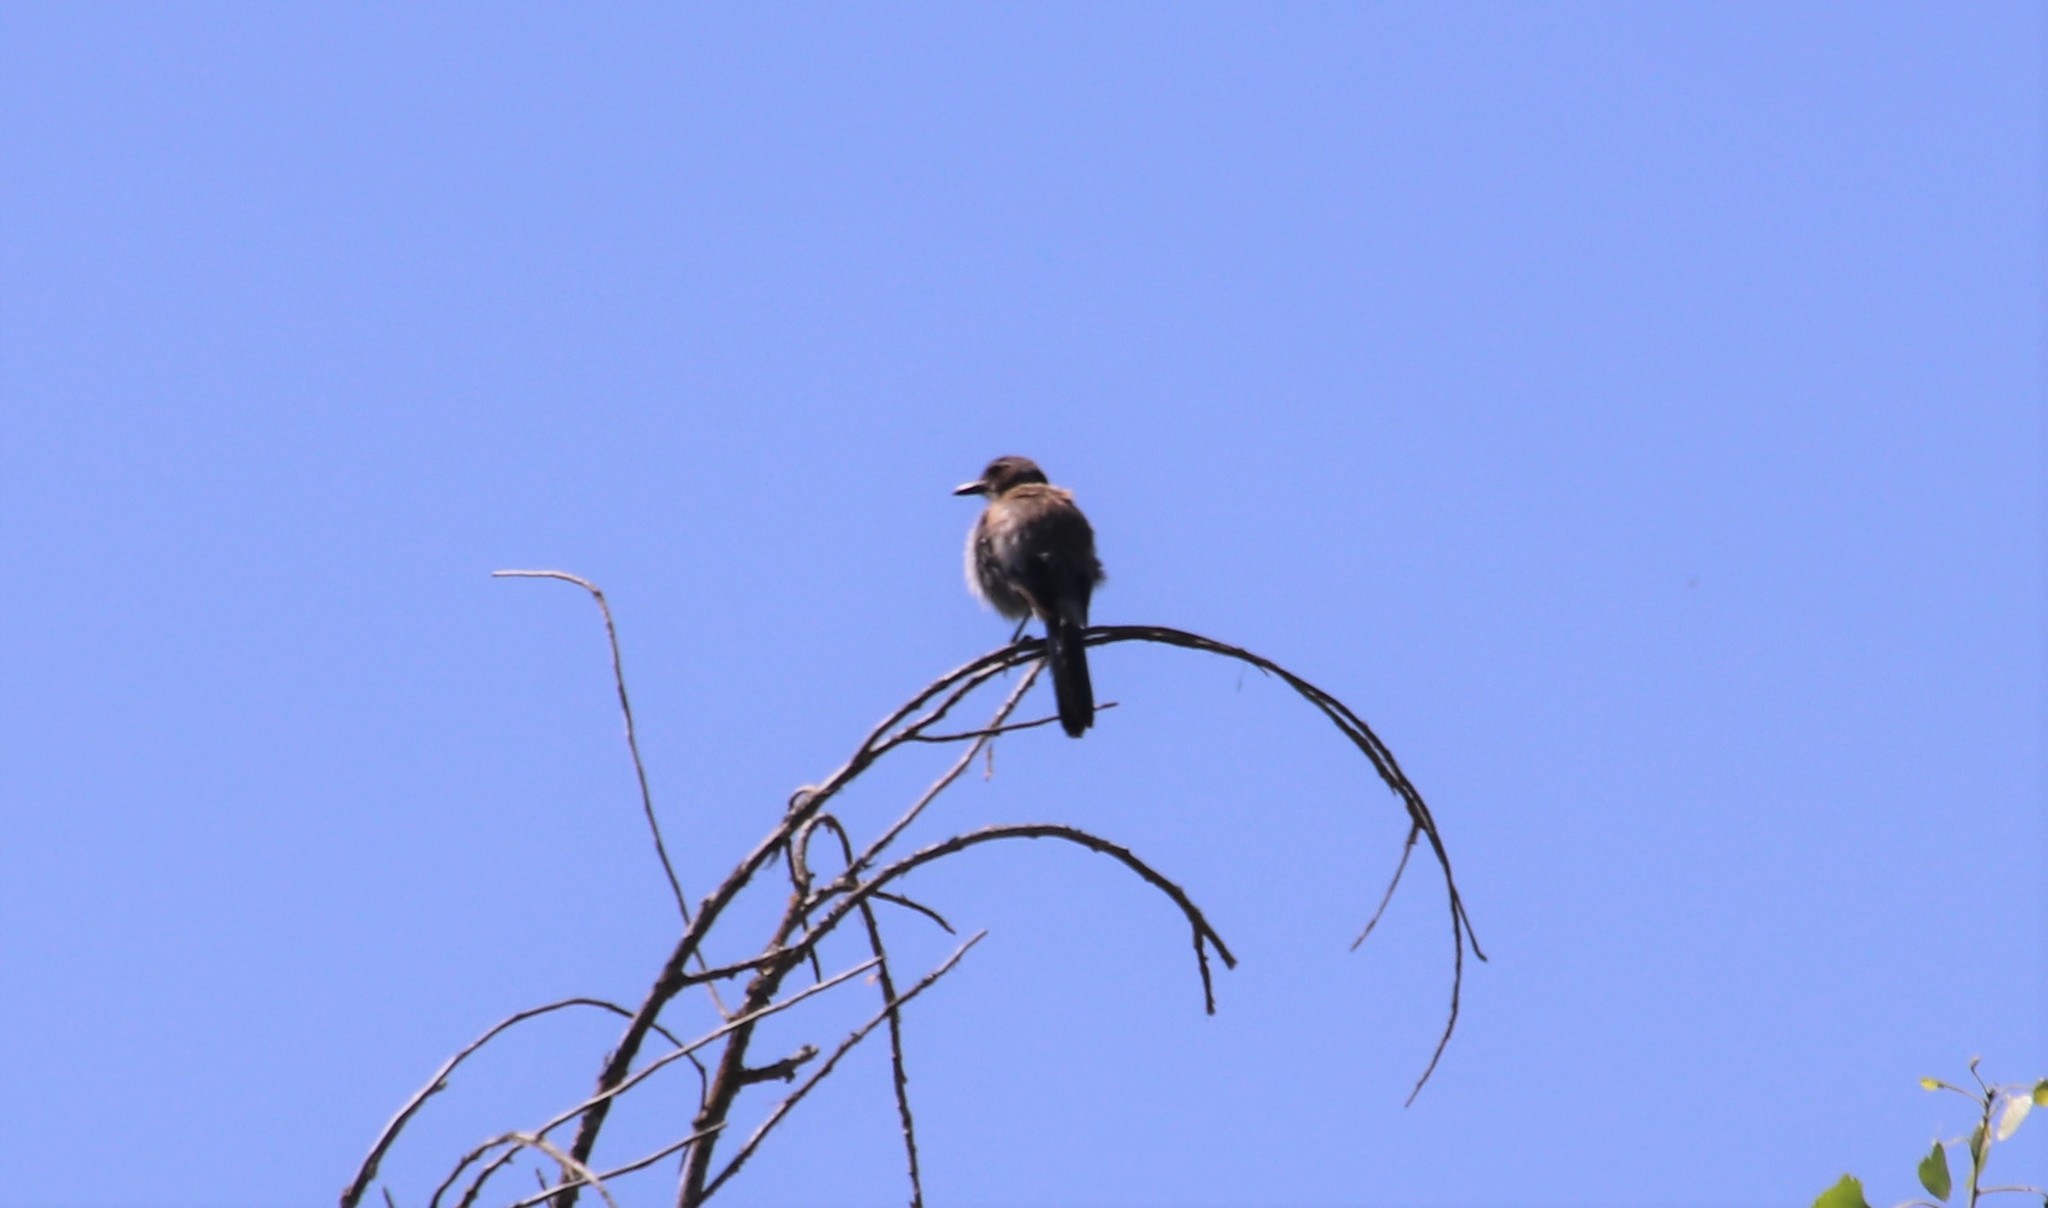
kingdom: Animalia
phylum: Chordata
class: Aves
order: Passeriformes
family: Corvidae
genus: Aphelocoma
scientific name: Aphelocoma californica
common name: California scrub-jay
